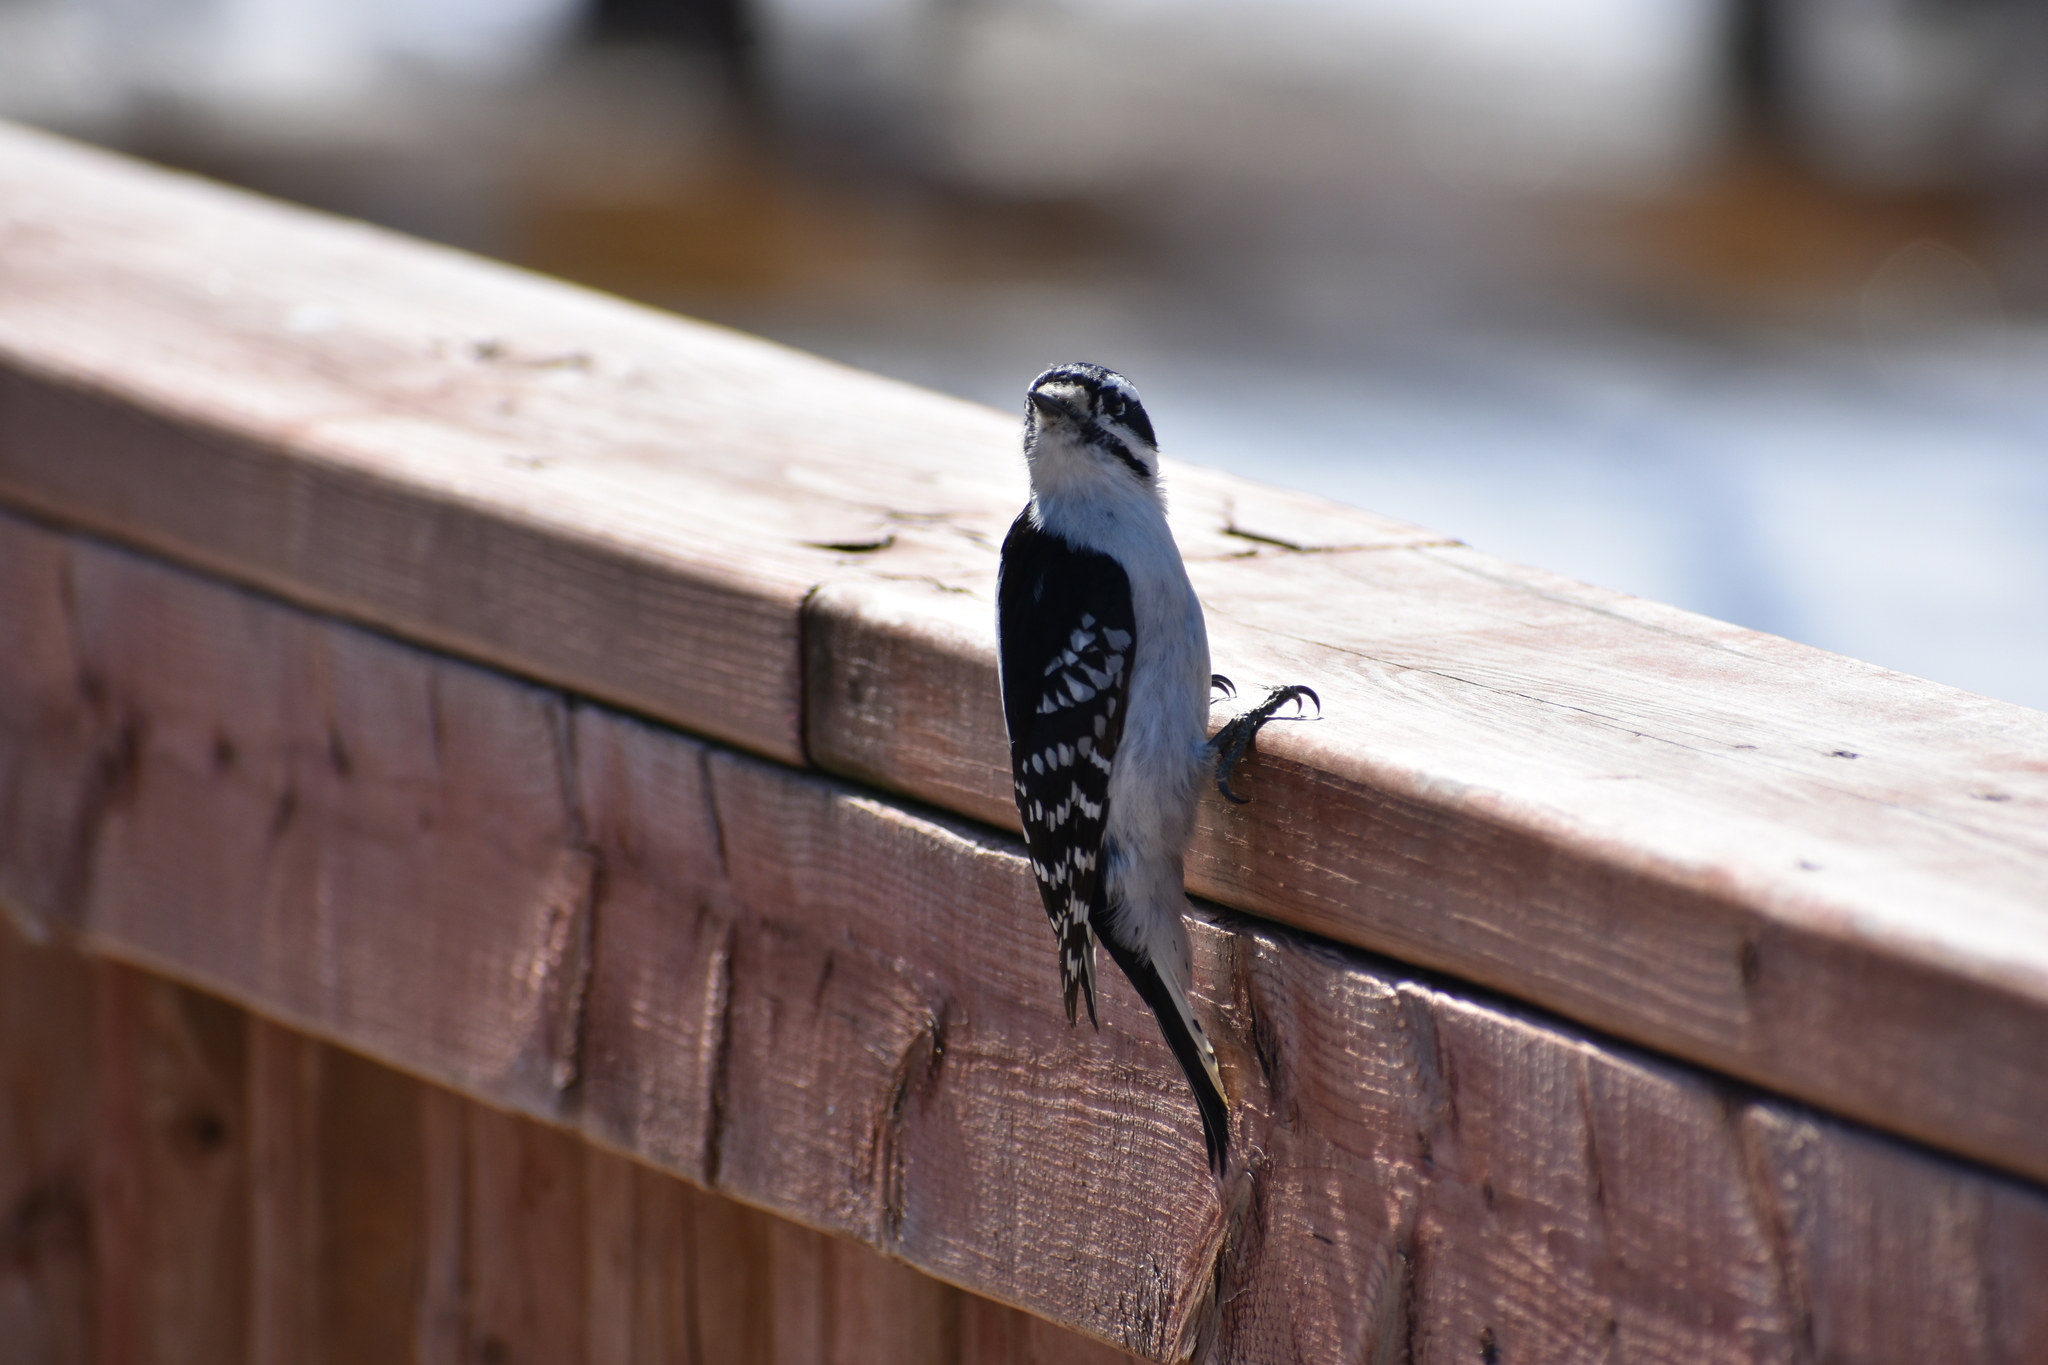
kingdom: Animalia
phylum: Chordata
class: Aves
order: Piciformes
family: Picidae
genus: Dryobates
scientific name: Dryobates pubescens
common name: Downy woodpecker
